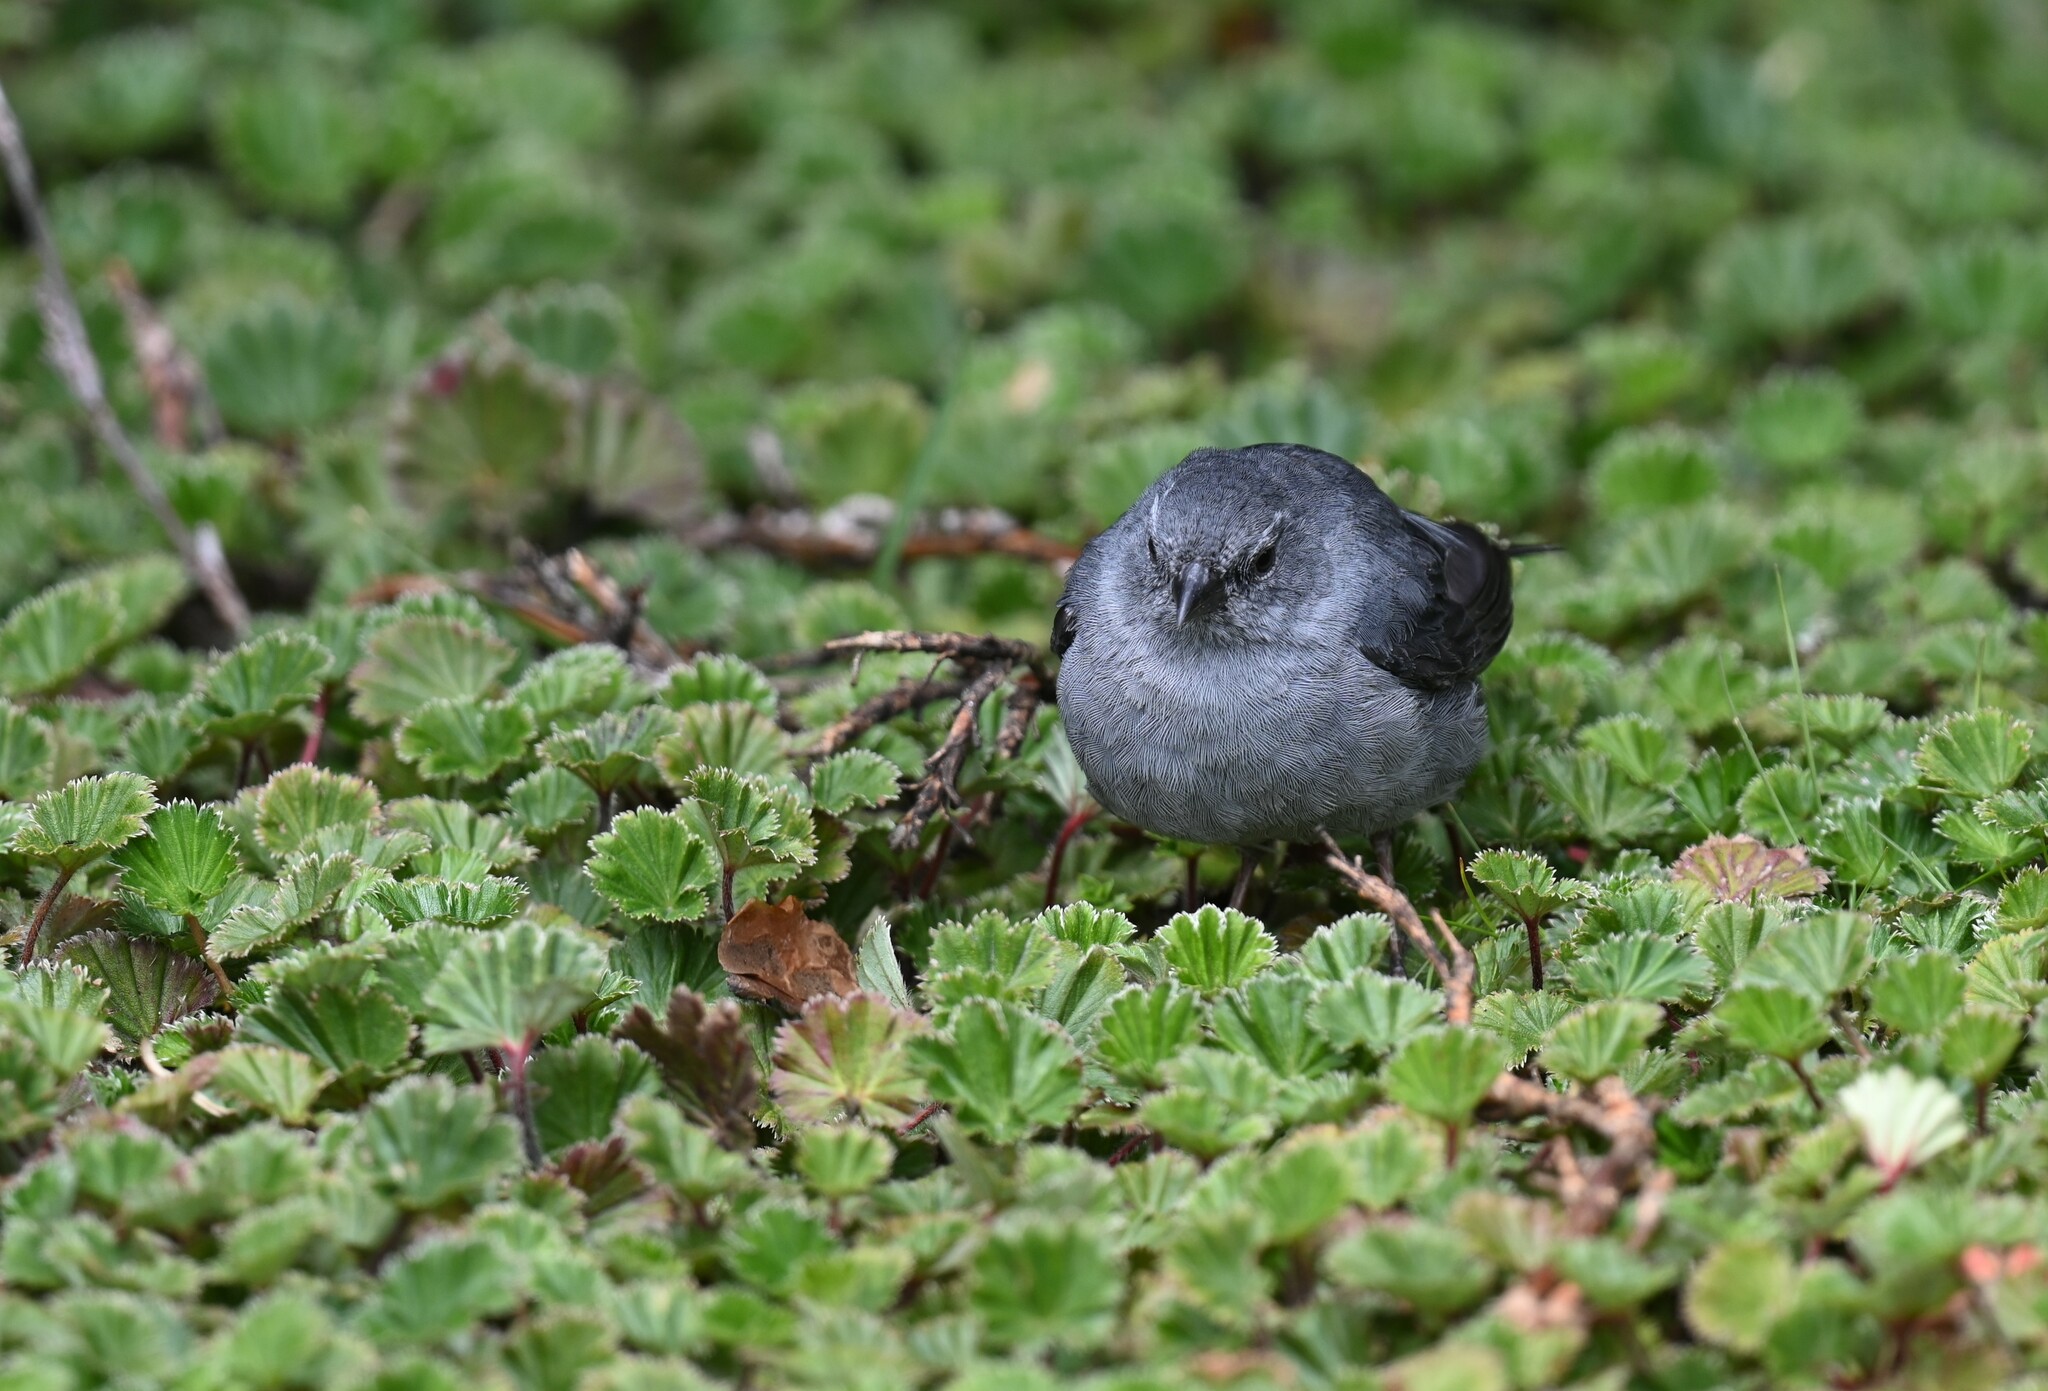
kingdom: Animalia
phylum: Chordata
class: Aves
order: Passeriformes
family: Thraupidae
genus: Geospizopsis
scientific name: Geospizopsis unicolor
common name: Plumbeous sierra-finch
